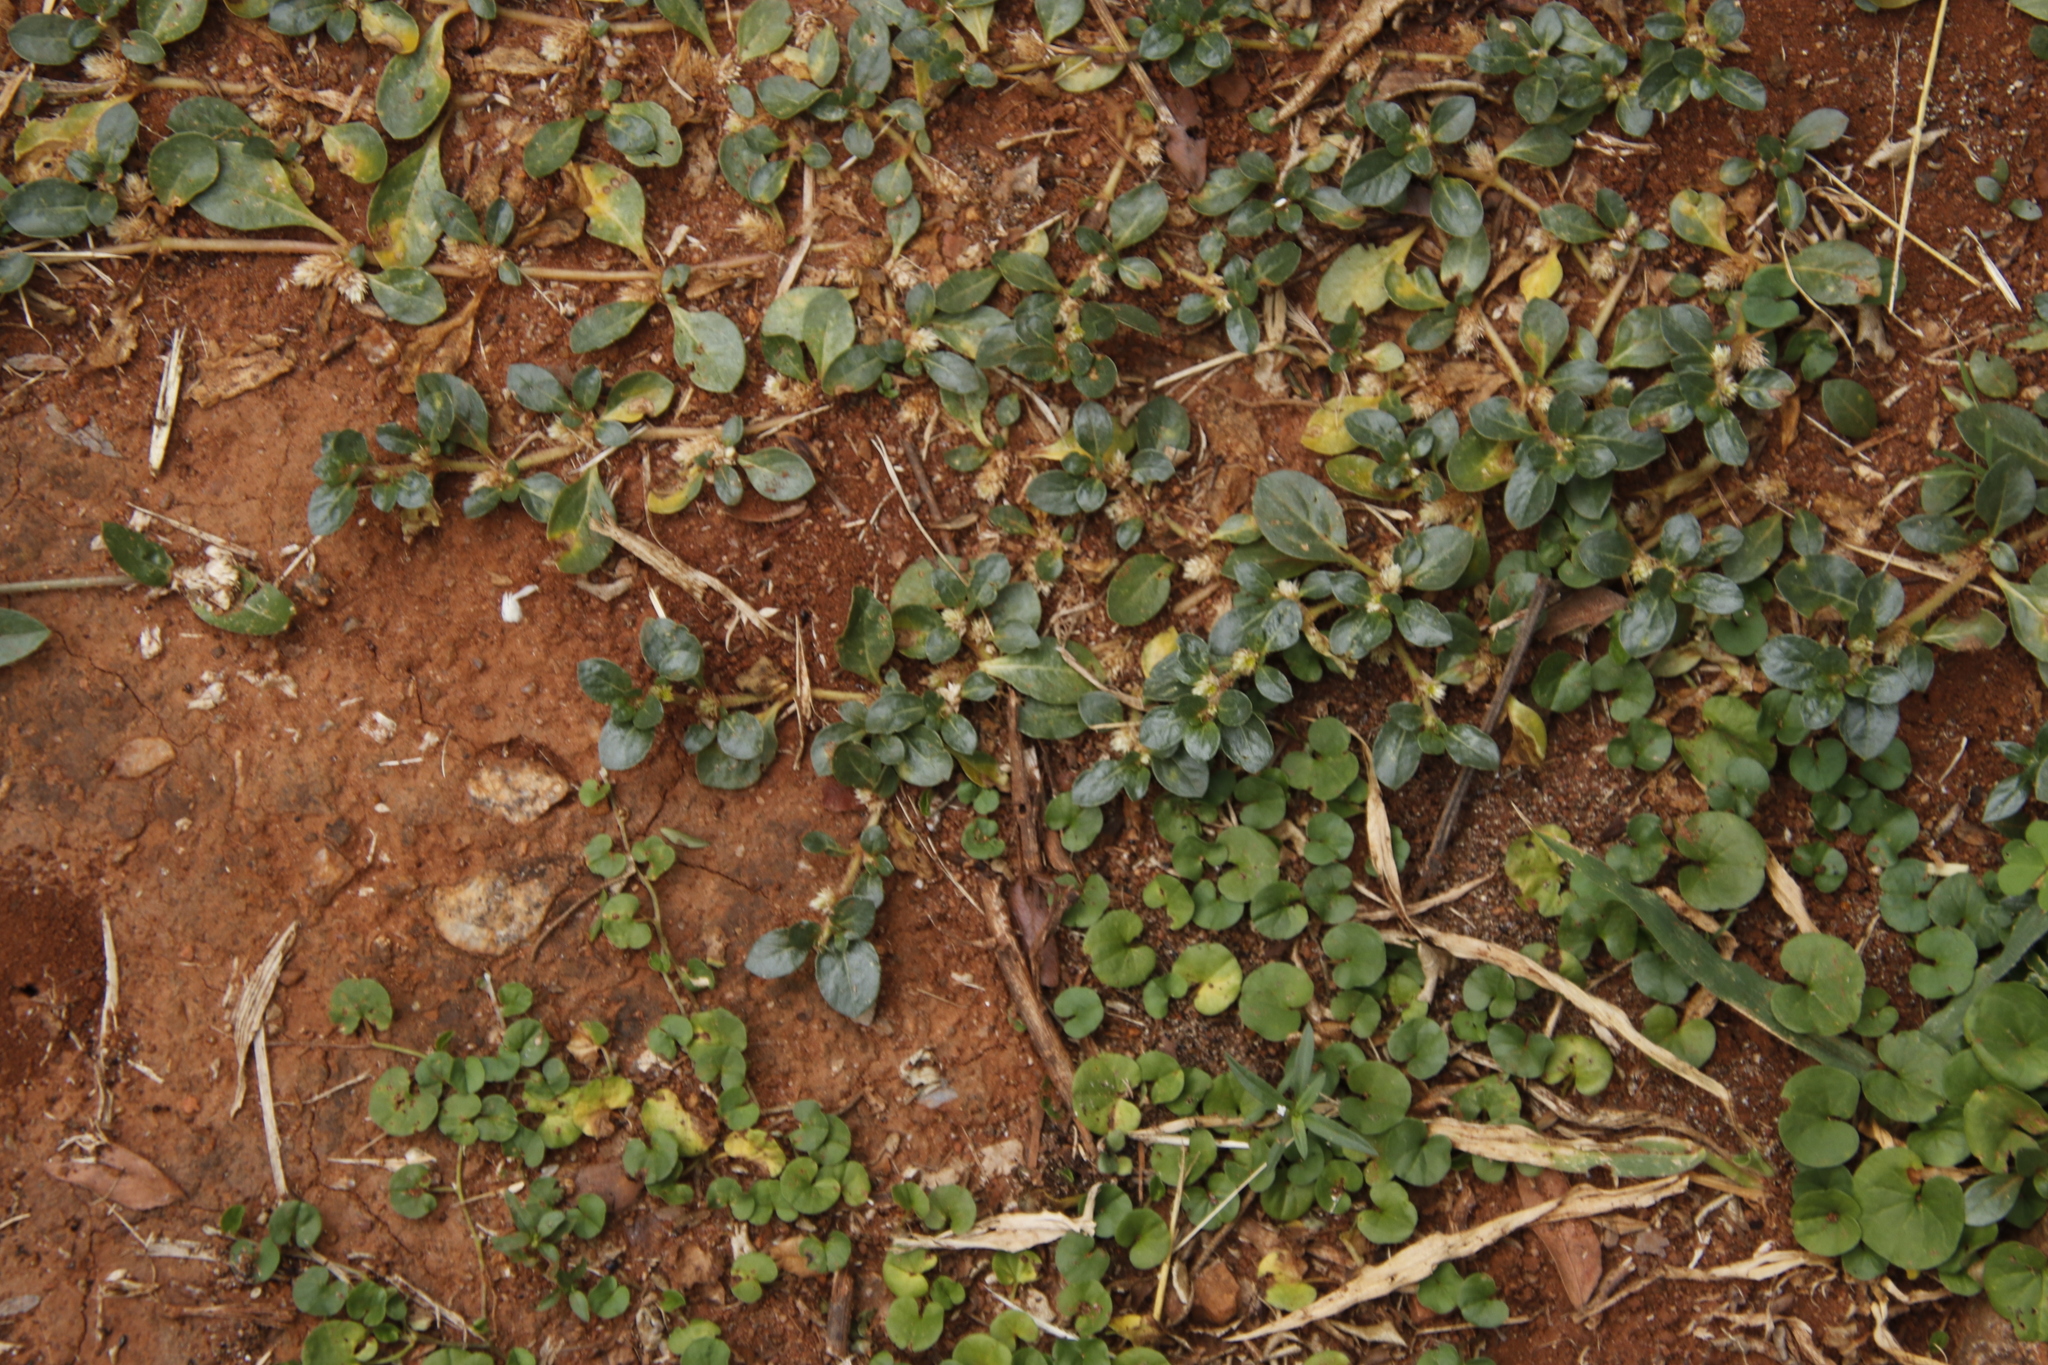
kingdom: Plantae
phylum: Tracheophyta
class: Magnoliopsida
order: Caryophyllales
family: Amaranthaceae
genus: Alternanthera
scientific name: Alternanthera caracasana
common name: Washerwoman
